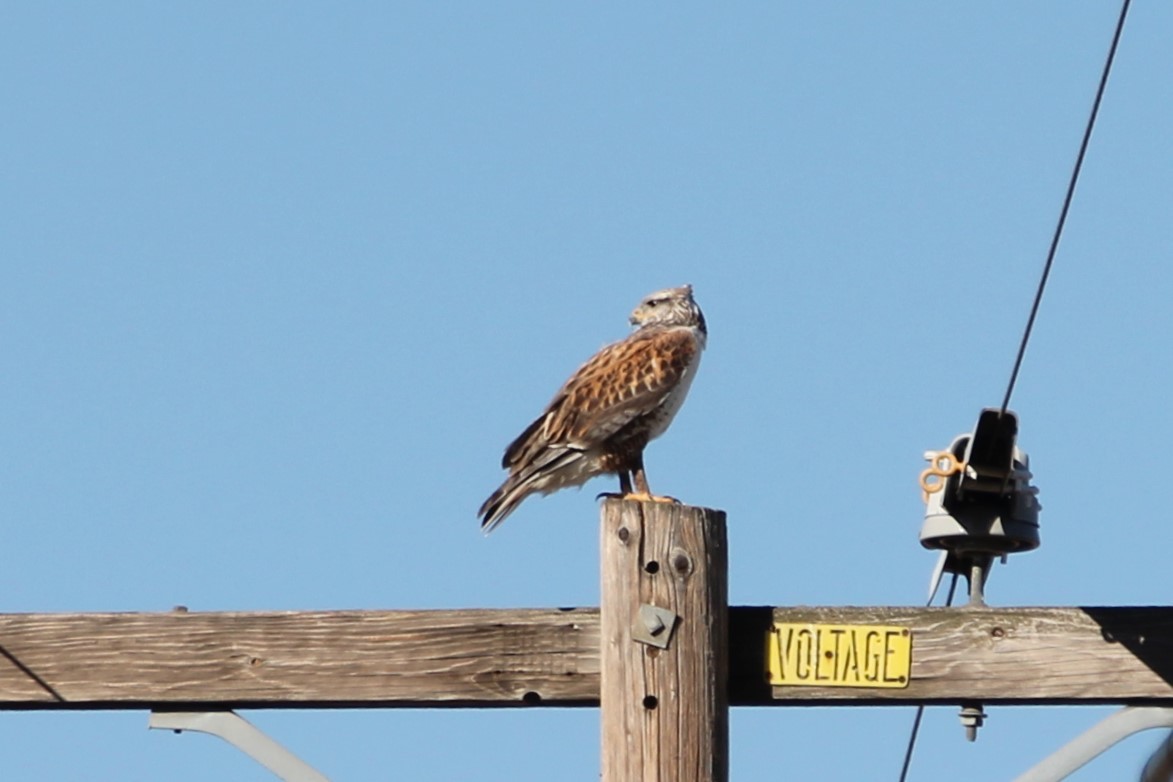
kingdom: Animalia
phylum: Chordata
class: Aves
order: Accipitriformes
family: Accipitridae
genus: Buteo
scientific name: Buteo regalis
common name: Ferruginous hawk
